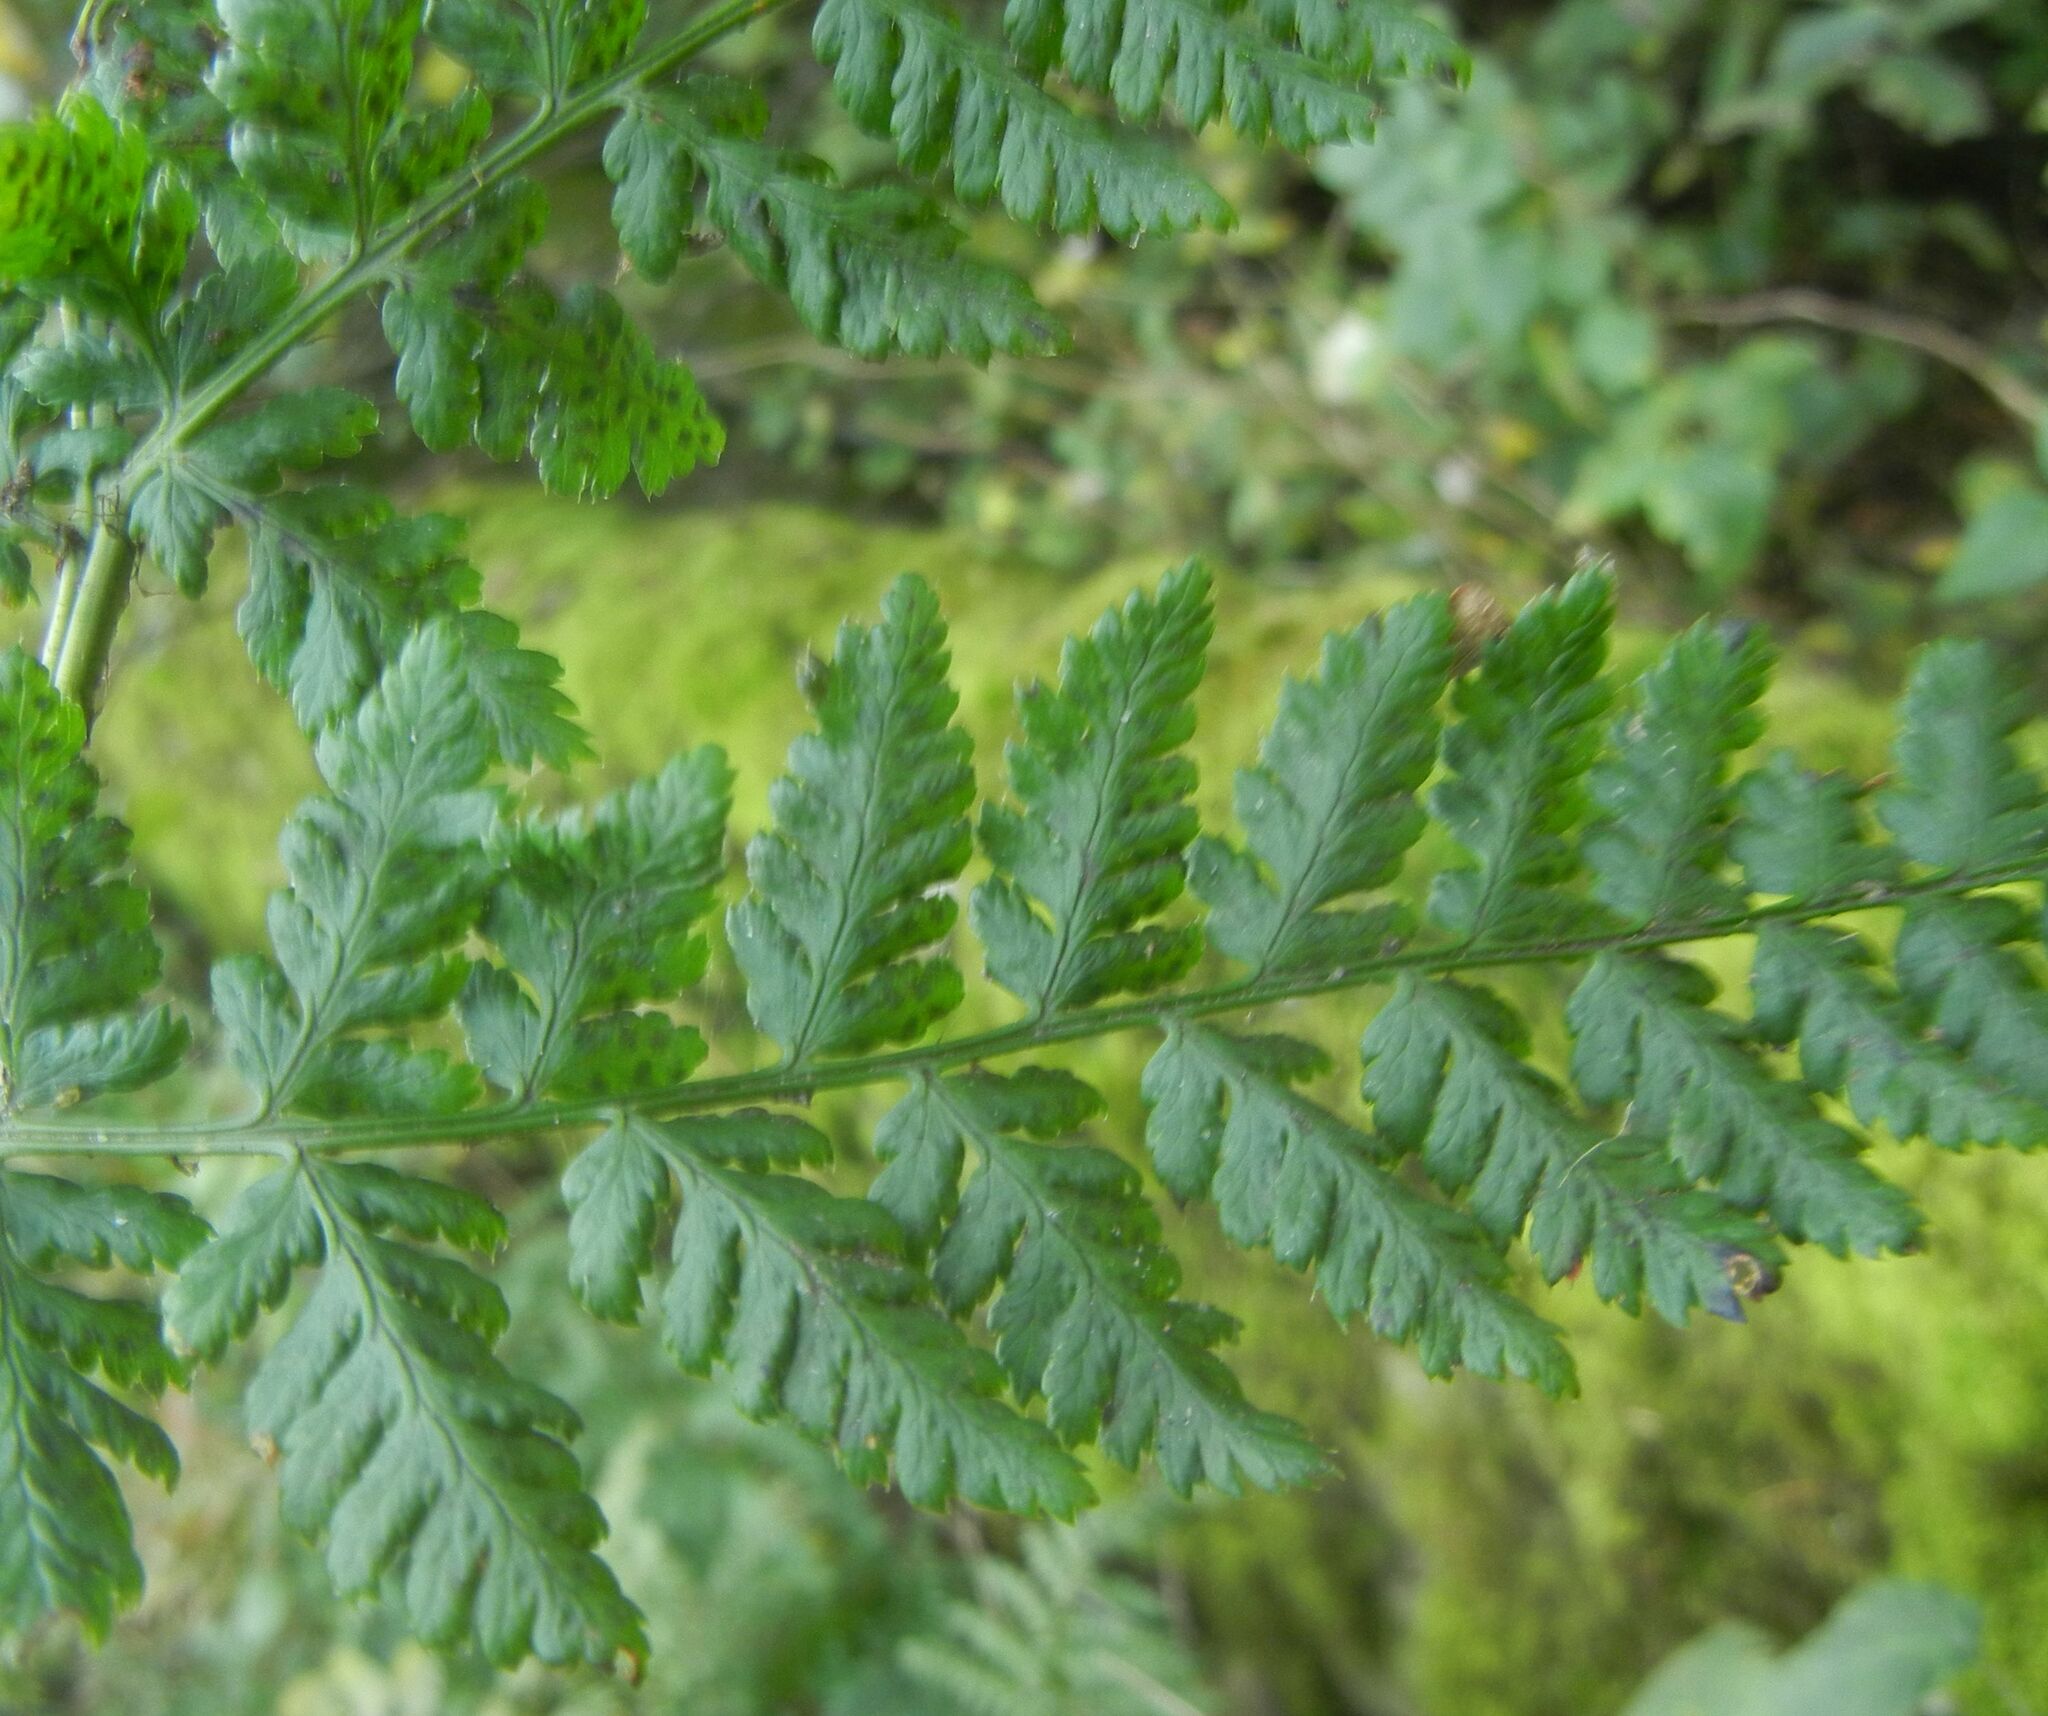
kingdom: Plantae
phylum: Tracheophyta
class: Polypodiopsida
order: Polypodiales
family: Athyriaceae
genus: Athyrium
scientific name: Athyrium filix-femina
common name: Lady fern
